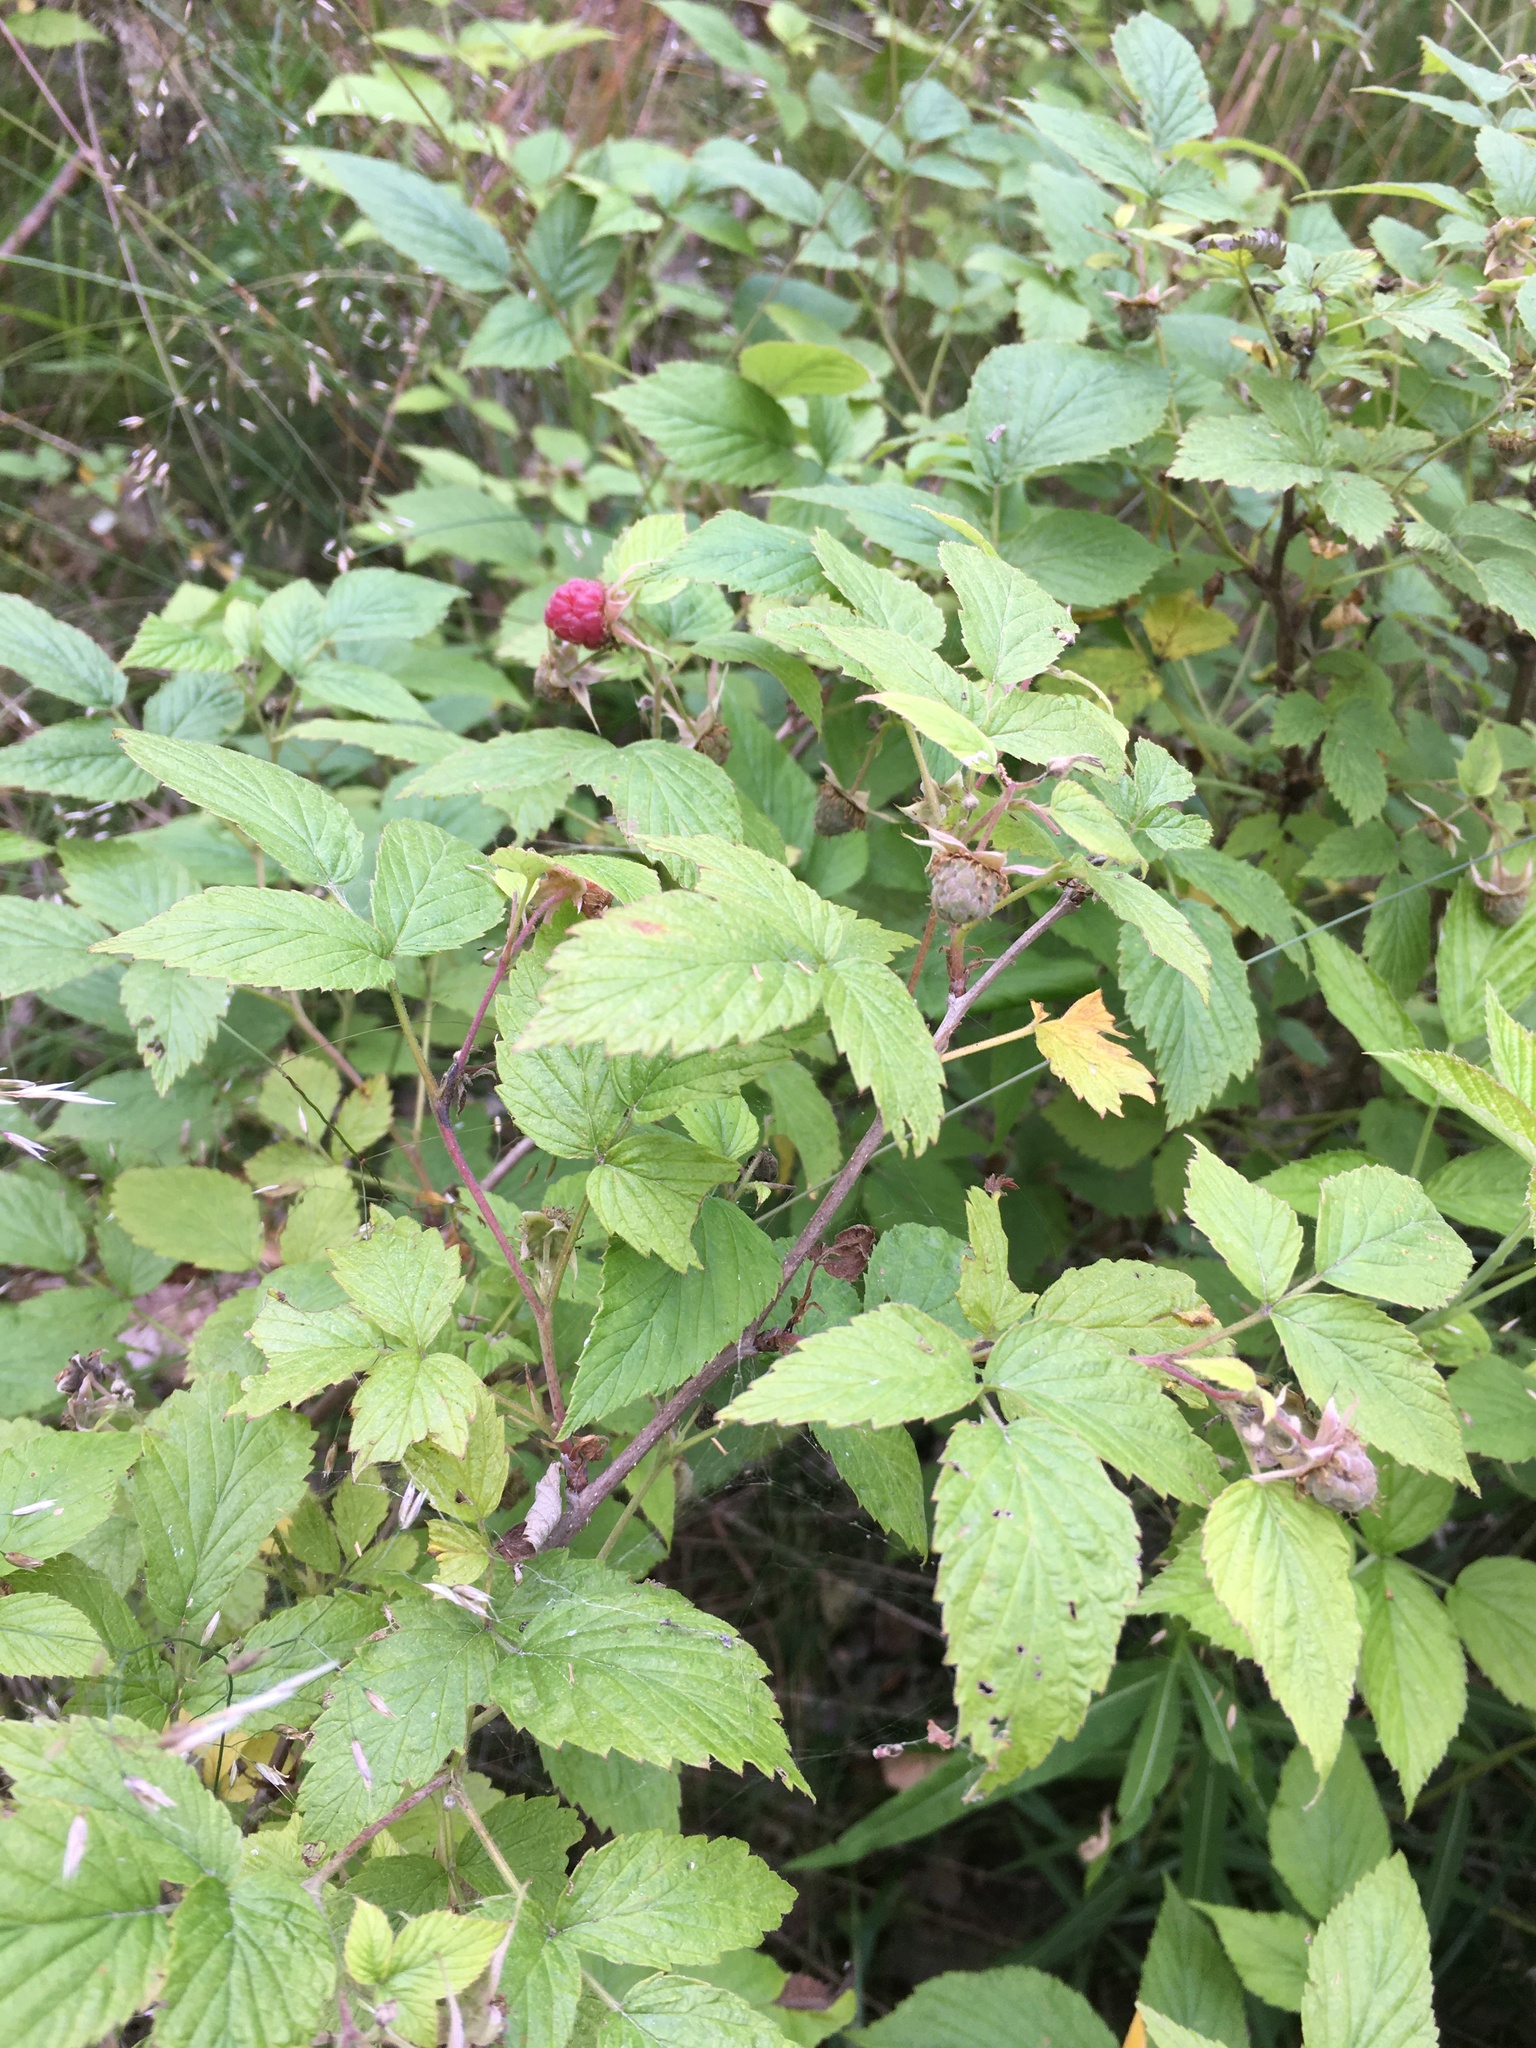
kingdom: Plantae
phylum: Tracheophyta
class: Magnoliopsida
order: Rosales
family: Rosaceae
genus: Rubus
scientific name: Rubus idaeus
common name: Raspberry
